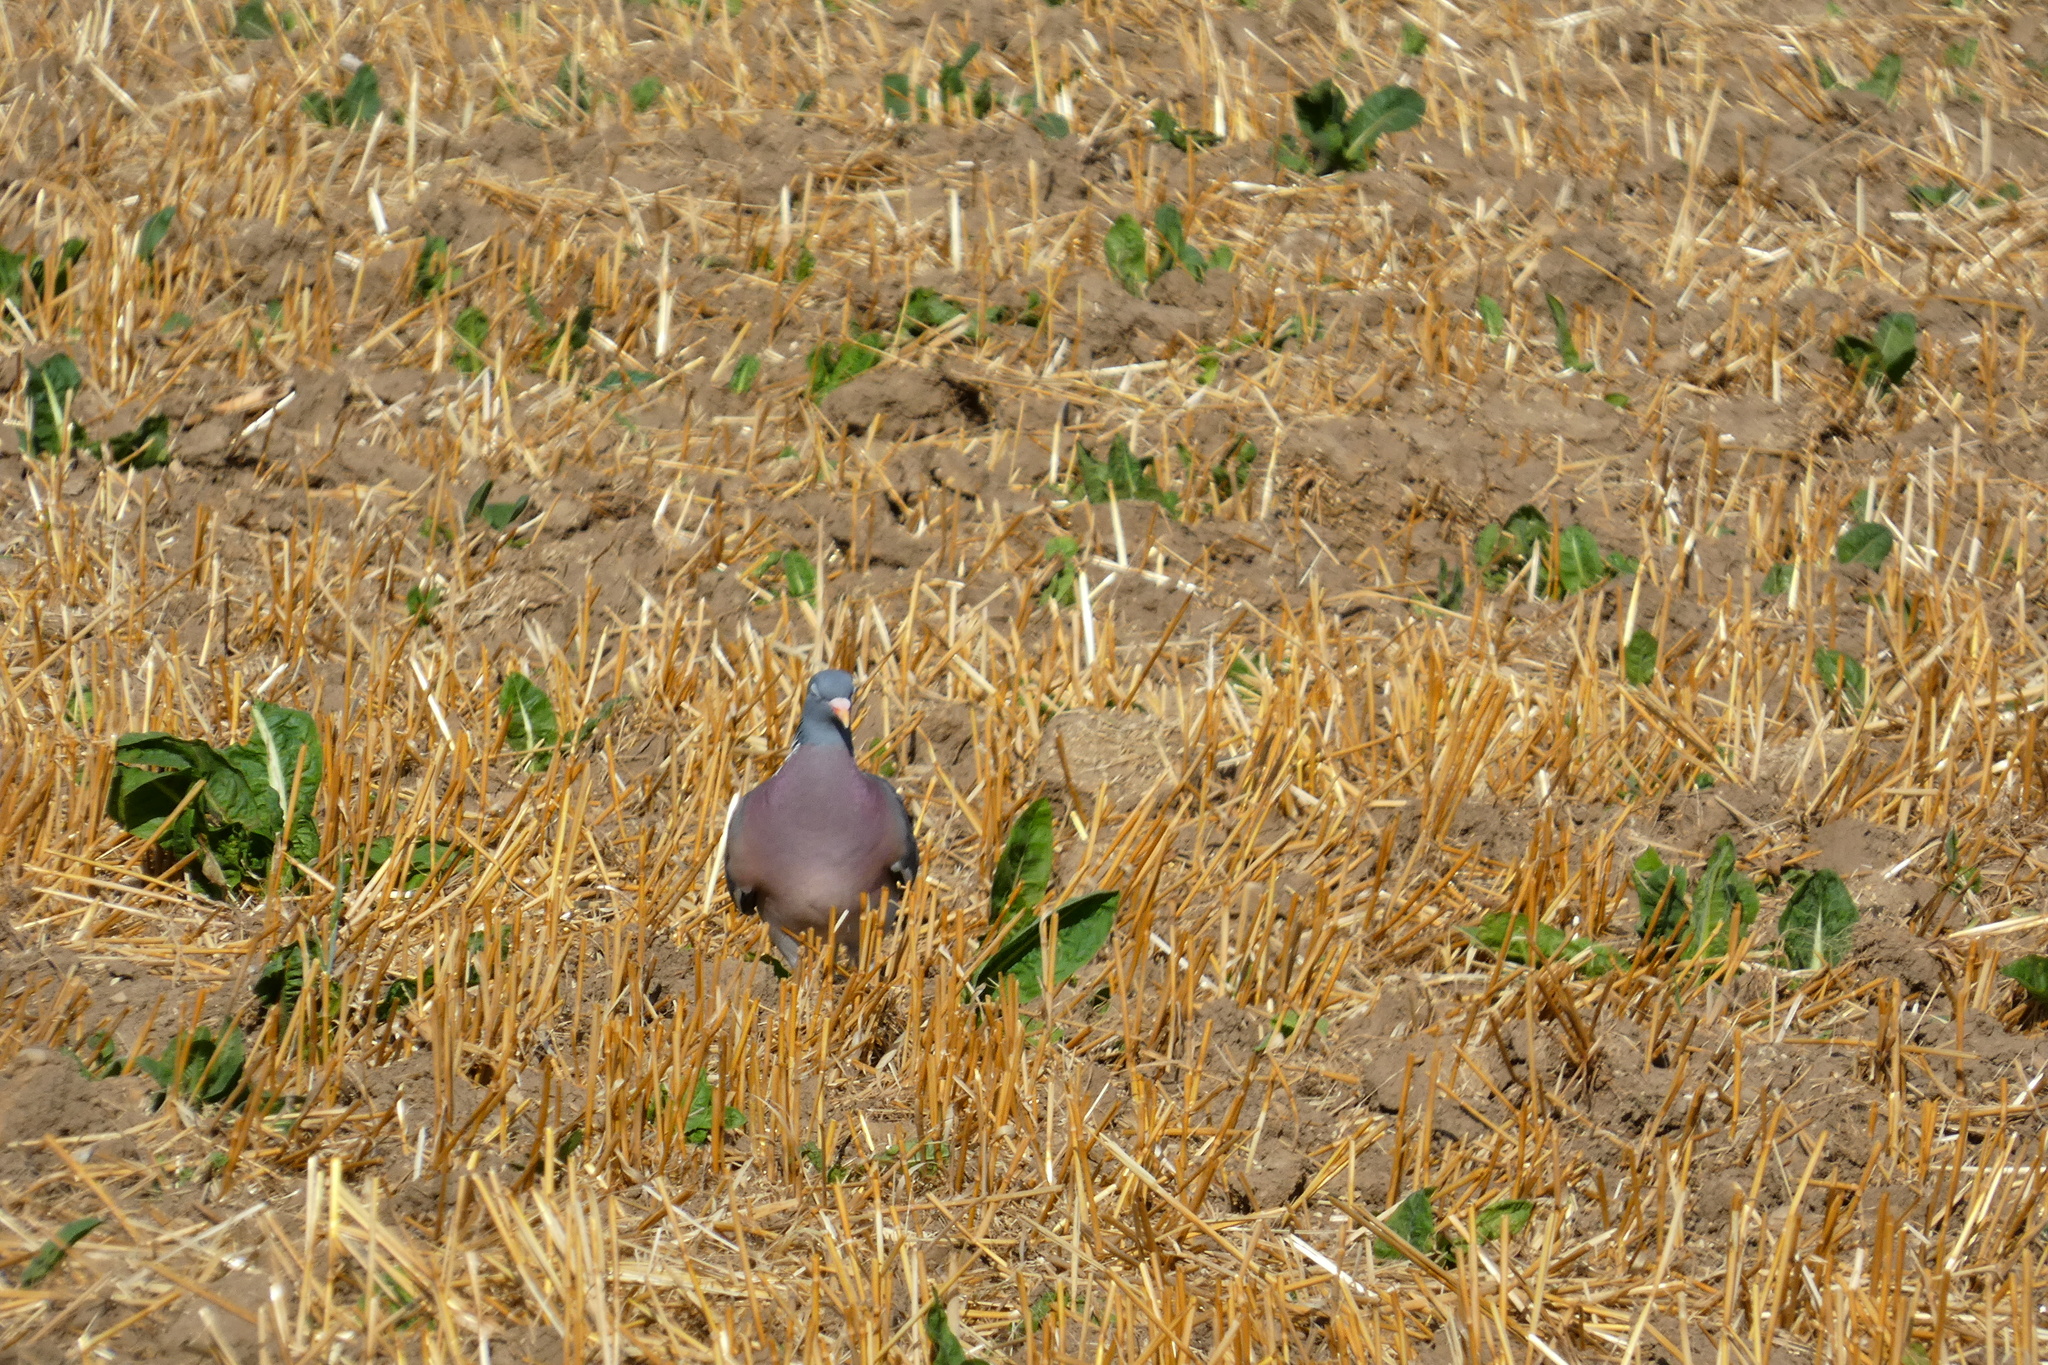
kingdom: Animalia
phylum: Chordata
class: Aves
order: Columbiformes
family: Columbidae
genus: Columba
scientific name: Columba palumbus
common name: Common wood pigeon
